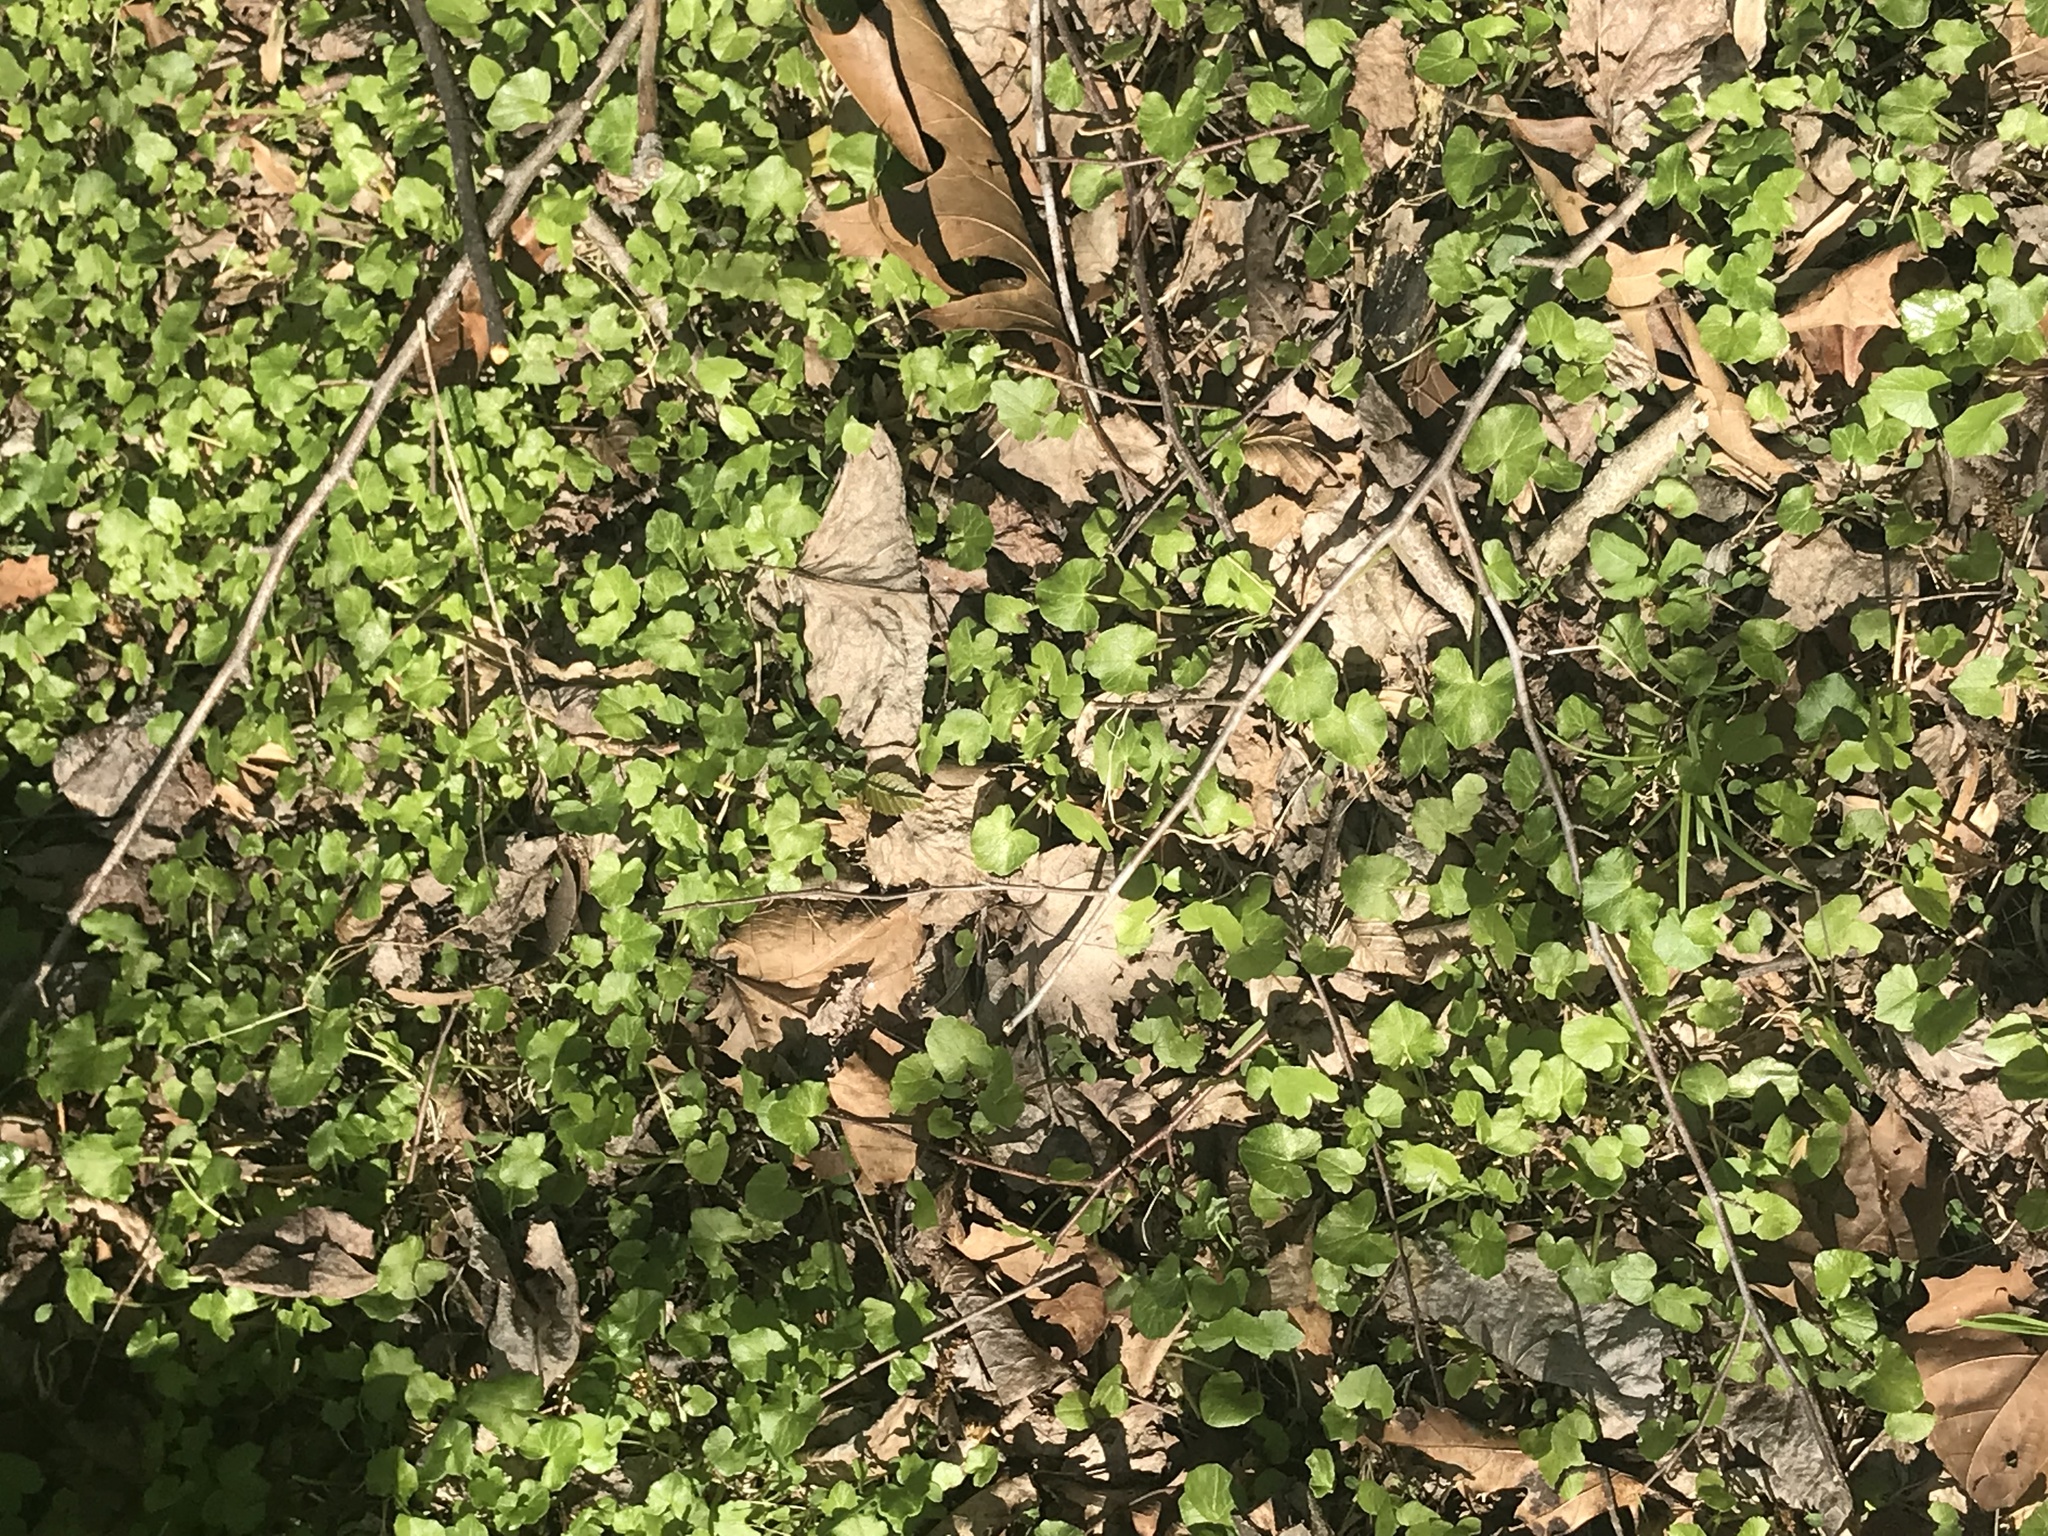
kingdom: Plantae
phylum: Tracheophyta
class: Magnoliopsida
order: Ranunculales
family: Ranunculaceae
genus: Ficaria
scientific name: Ficaria verna
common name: Lesser celandine
